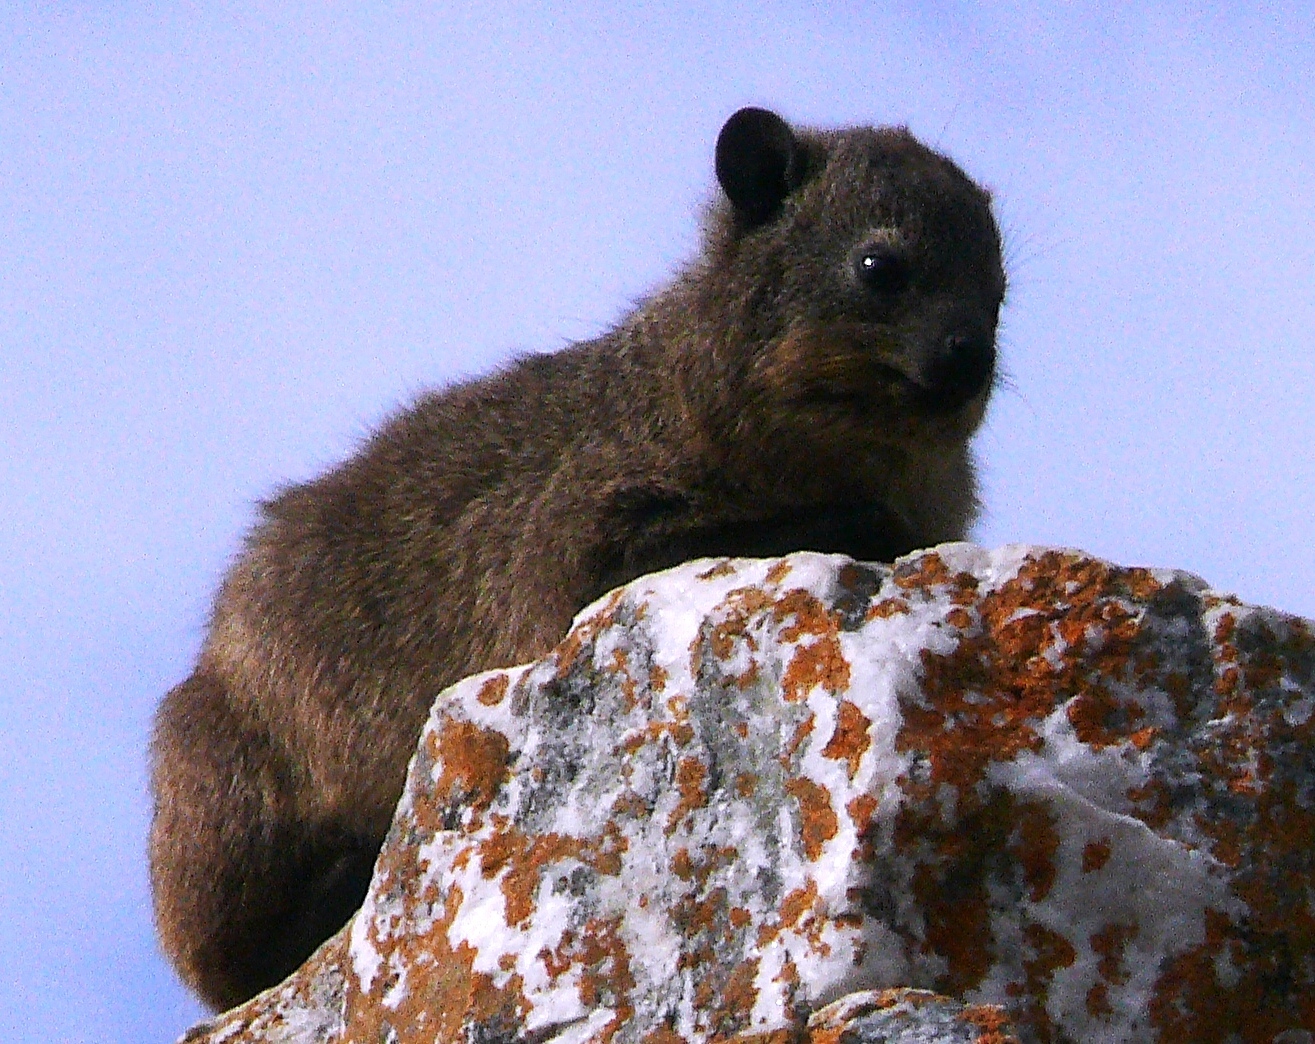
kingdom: Animalia
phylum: Chordata
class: Mammalia
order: Hyracoidea
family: Procaviidae
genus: Procavia
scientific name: Procavia capensis
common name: Rock hyrax
